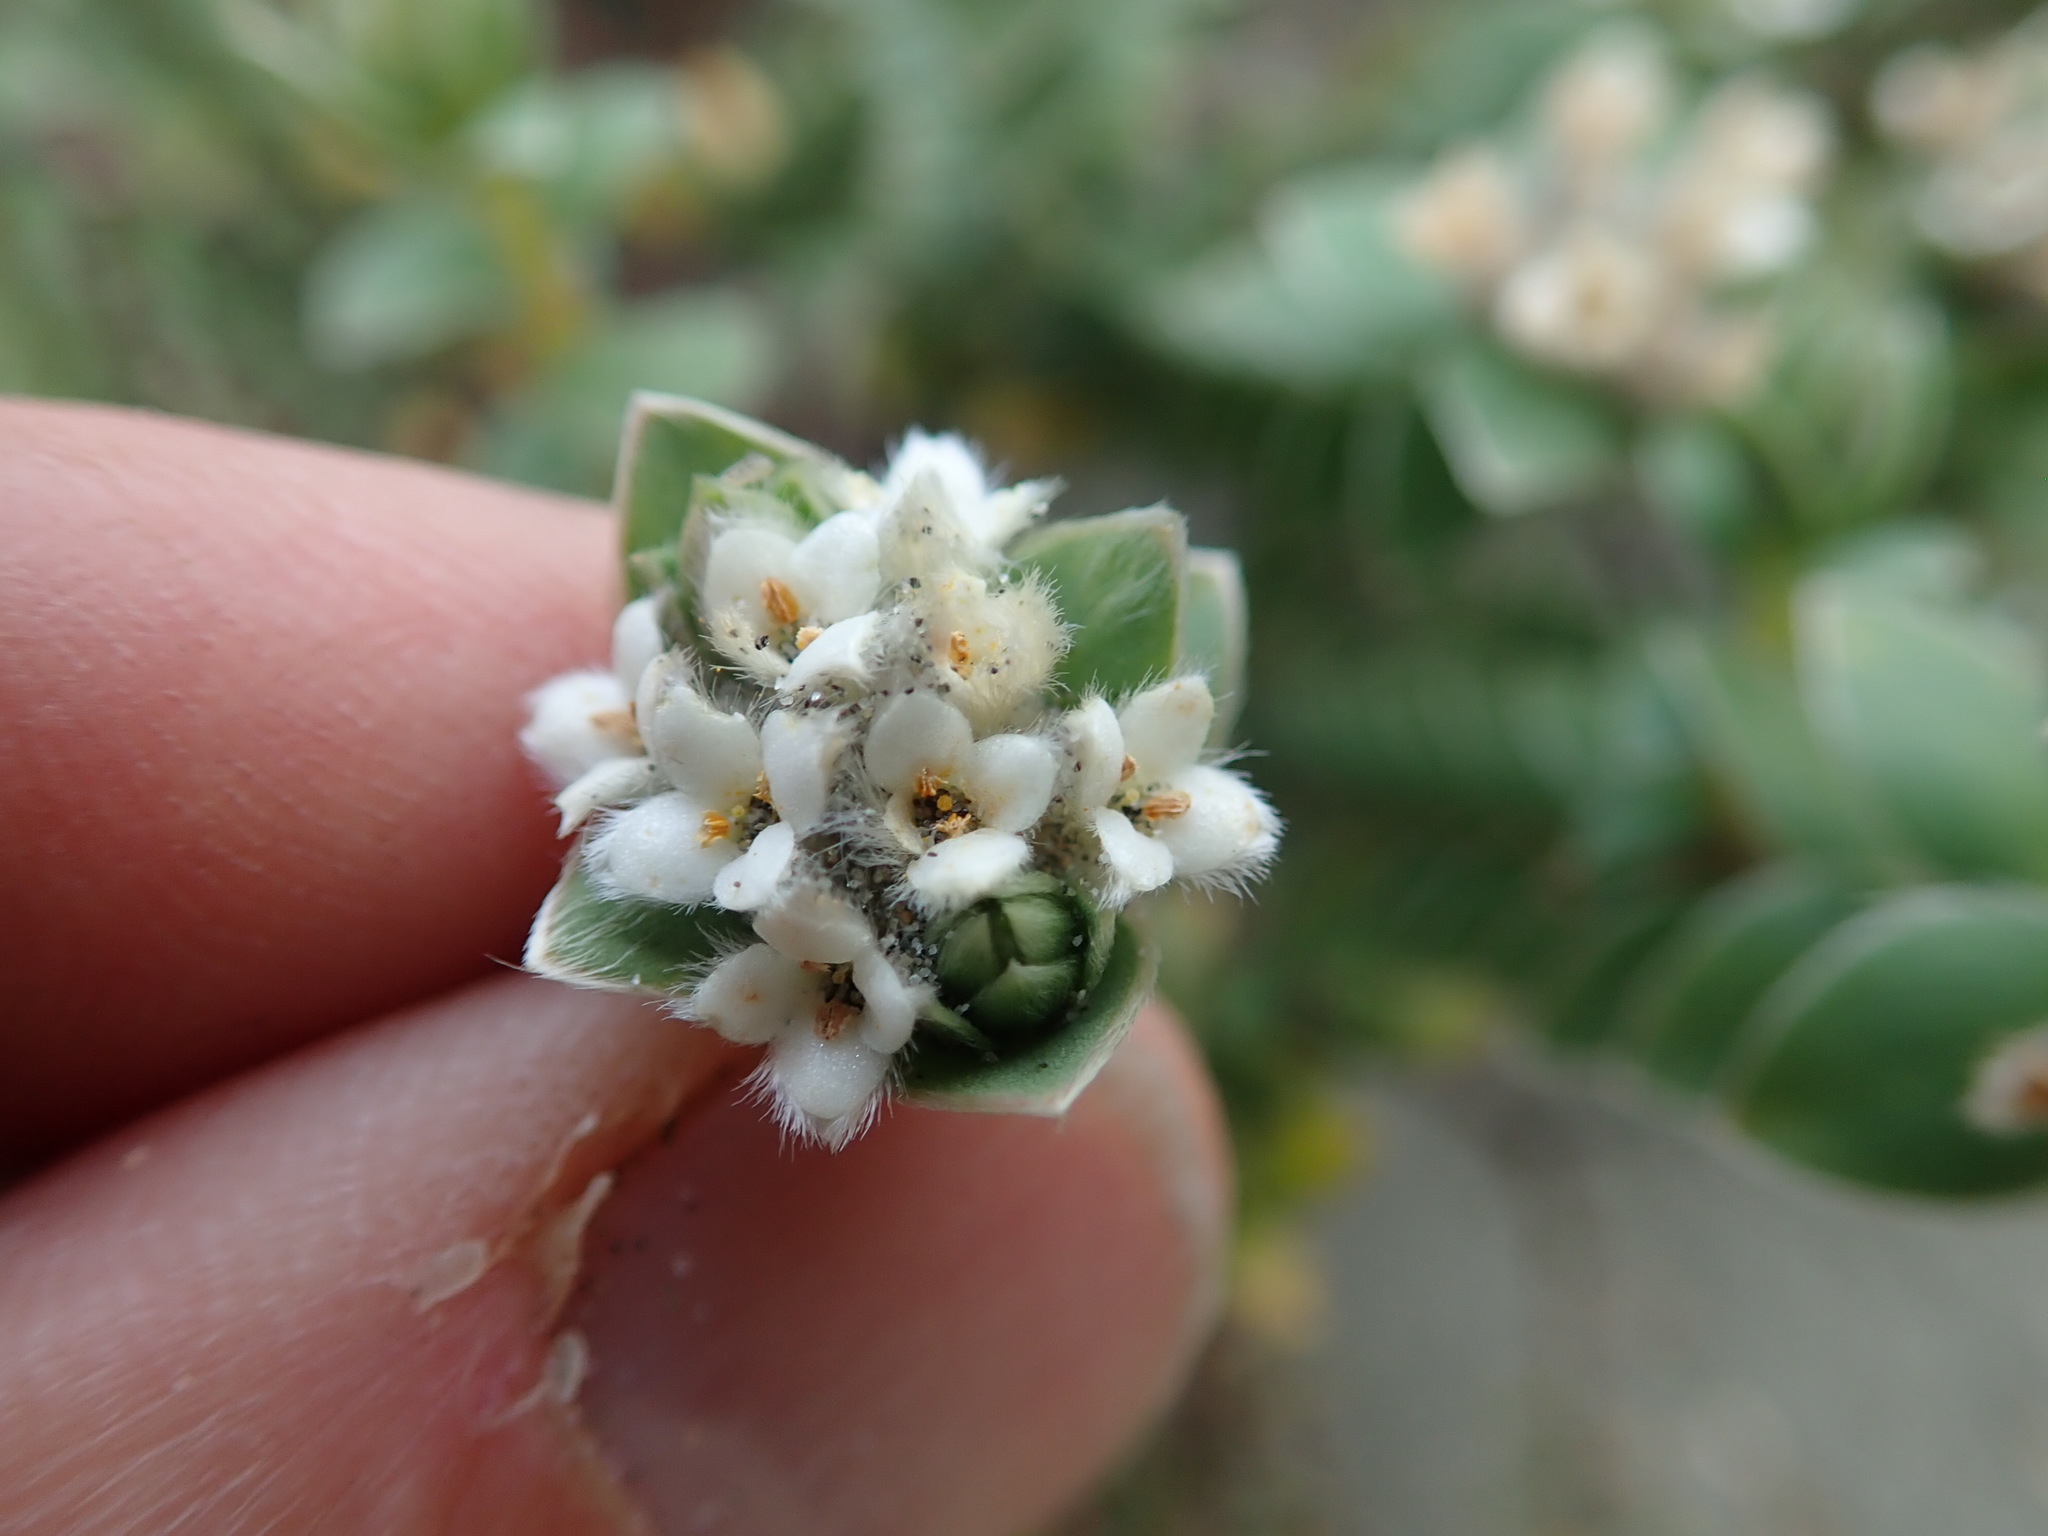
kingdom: Plantae
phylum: Tracheophyta
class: Magnoliopsida
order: Malvales
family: Thymelaeaceae
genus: Pimelea
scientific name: Pimelea villosa
